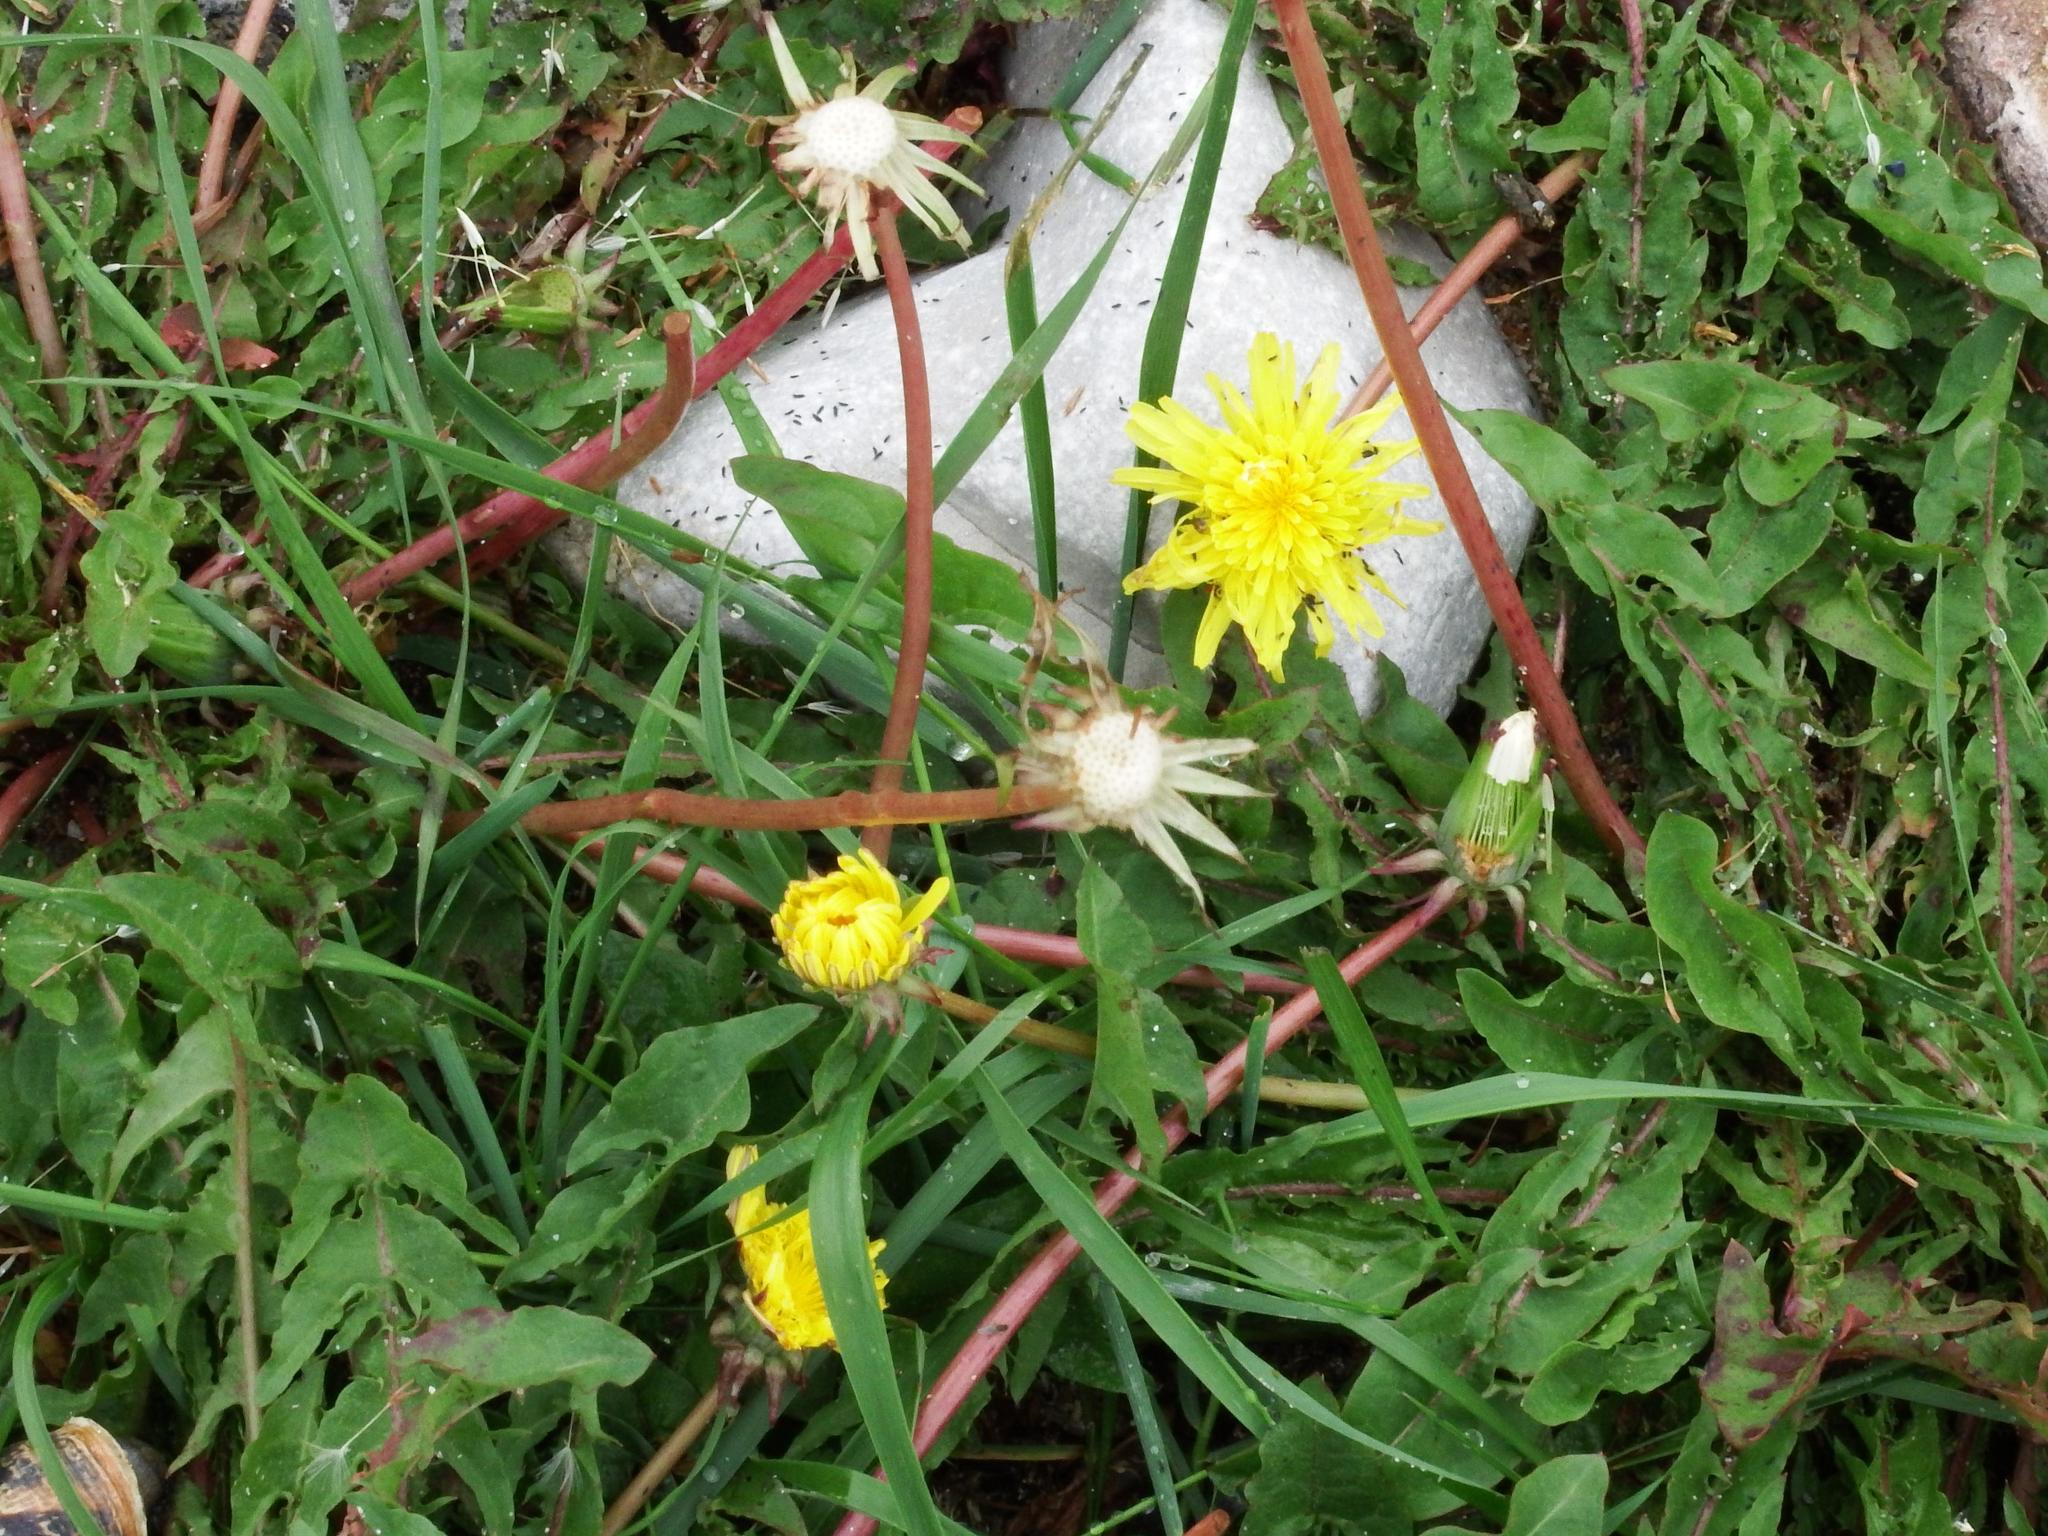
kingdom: Plantae
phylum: Tracheophyta
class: Magnoliopsida
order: Asterales
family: Asteraceae
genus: Taraxacum
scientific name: Taraxacum officinale
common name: Common dandelion
